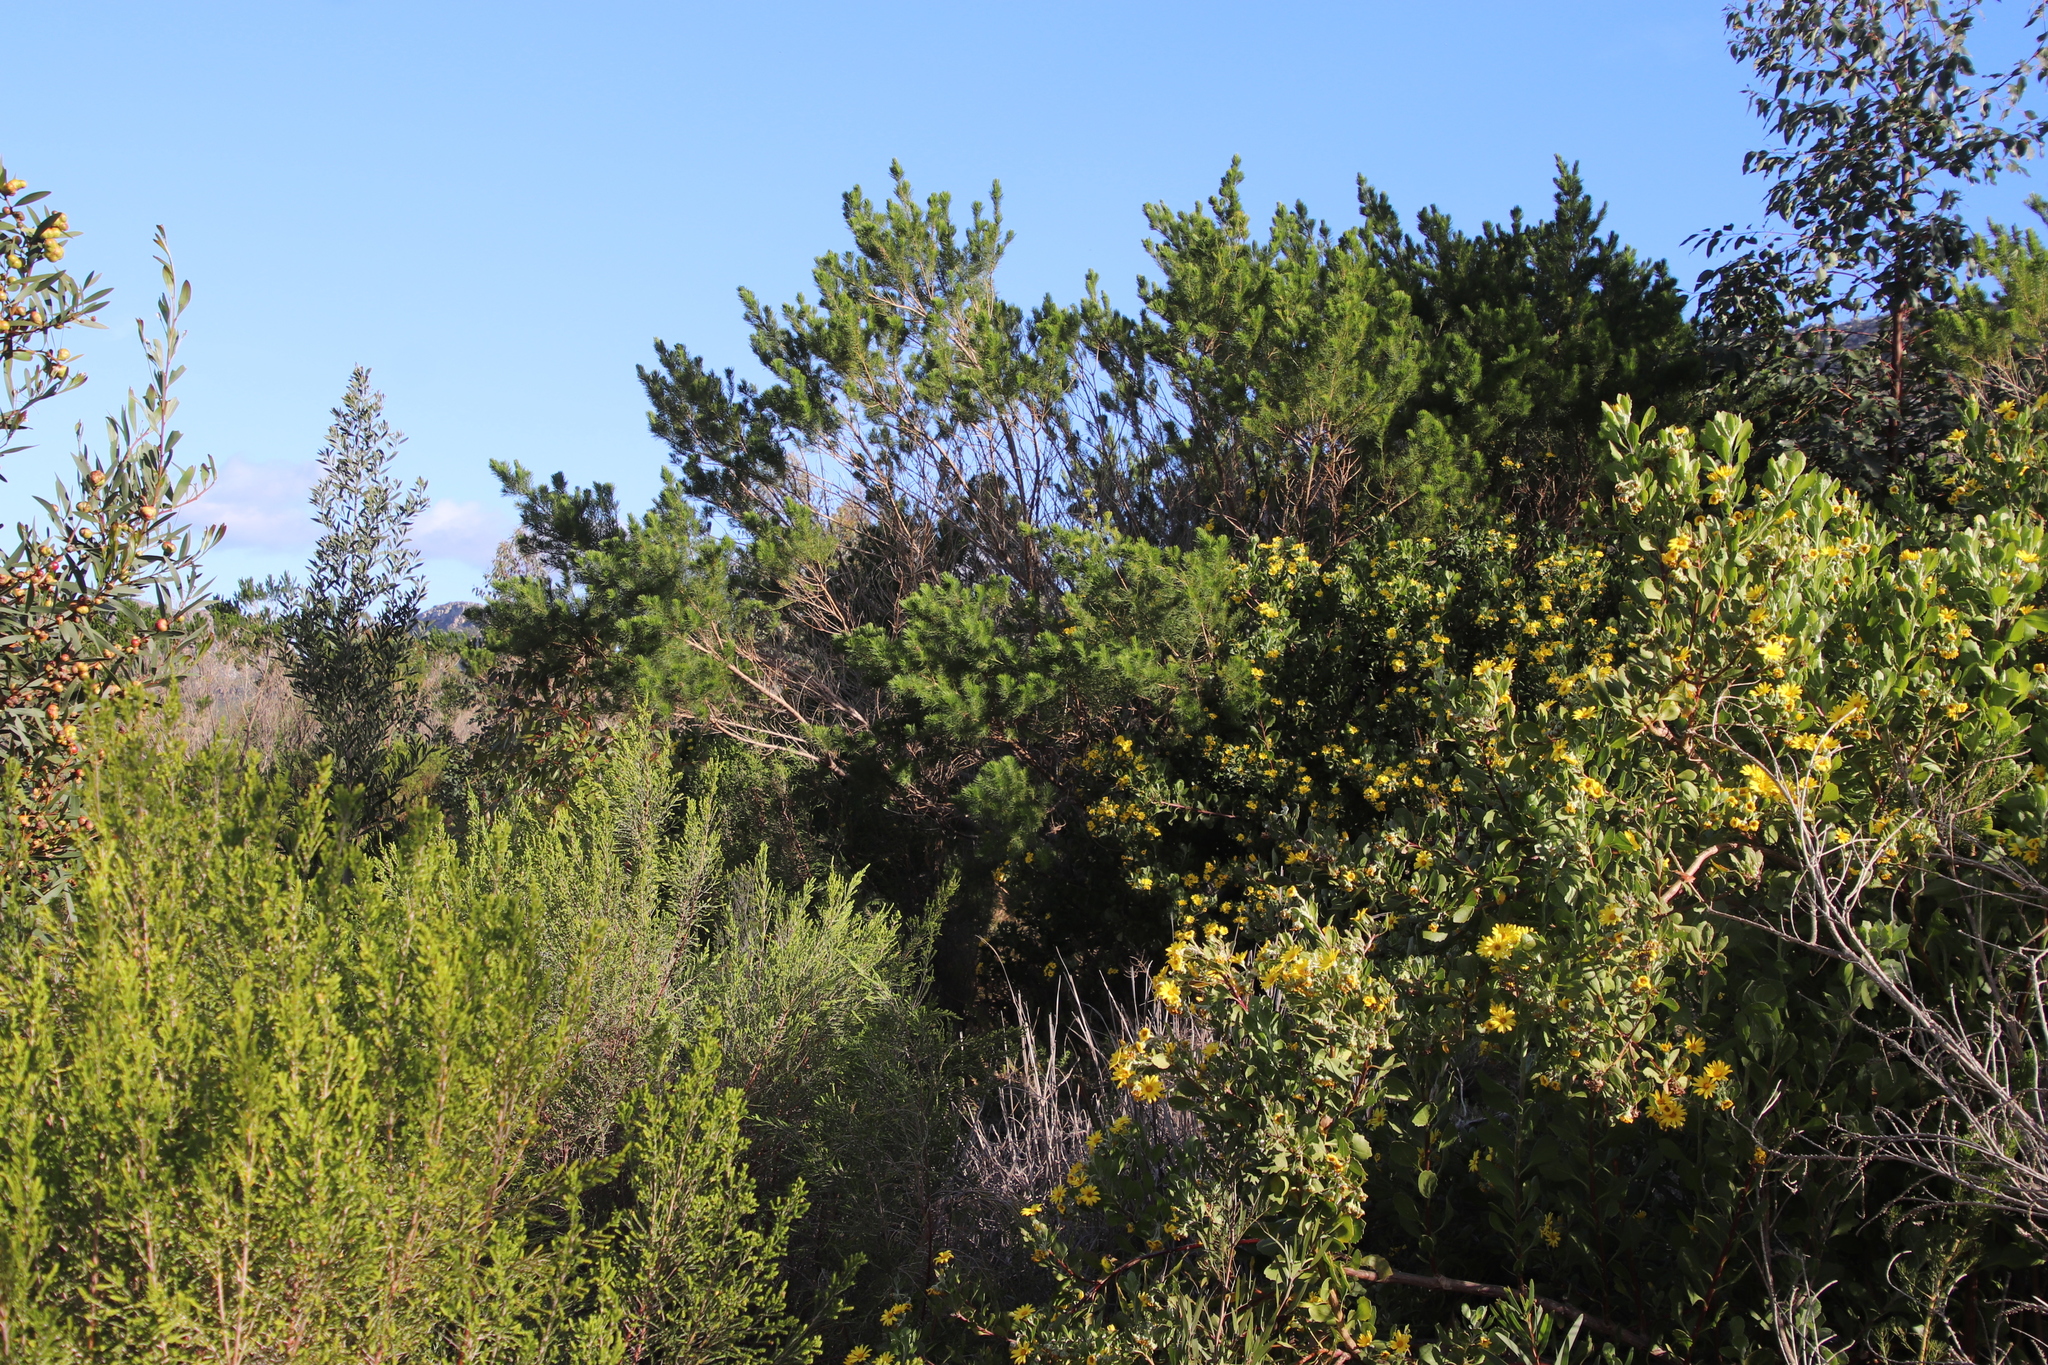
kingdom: Plantae
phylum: Tracheophyta
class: Magnoliopsida
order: Fabales
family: Fabaceae
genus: Psoralea
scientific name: Psoralea pinnata
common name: African scurfpea
